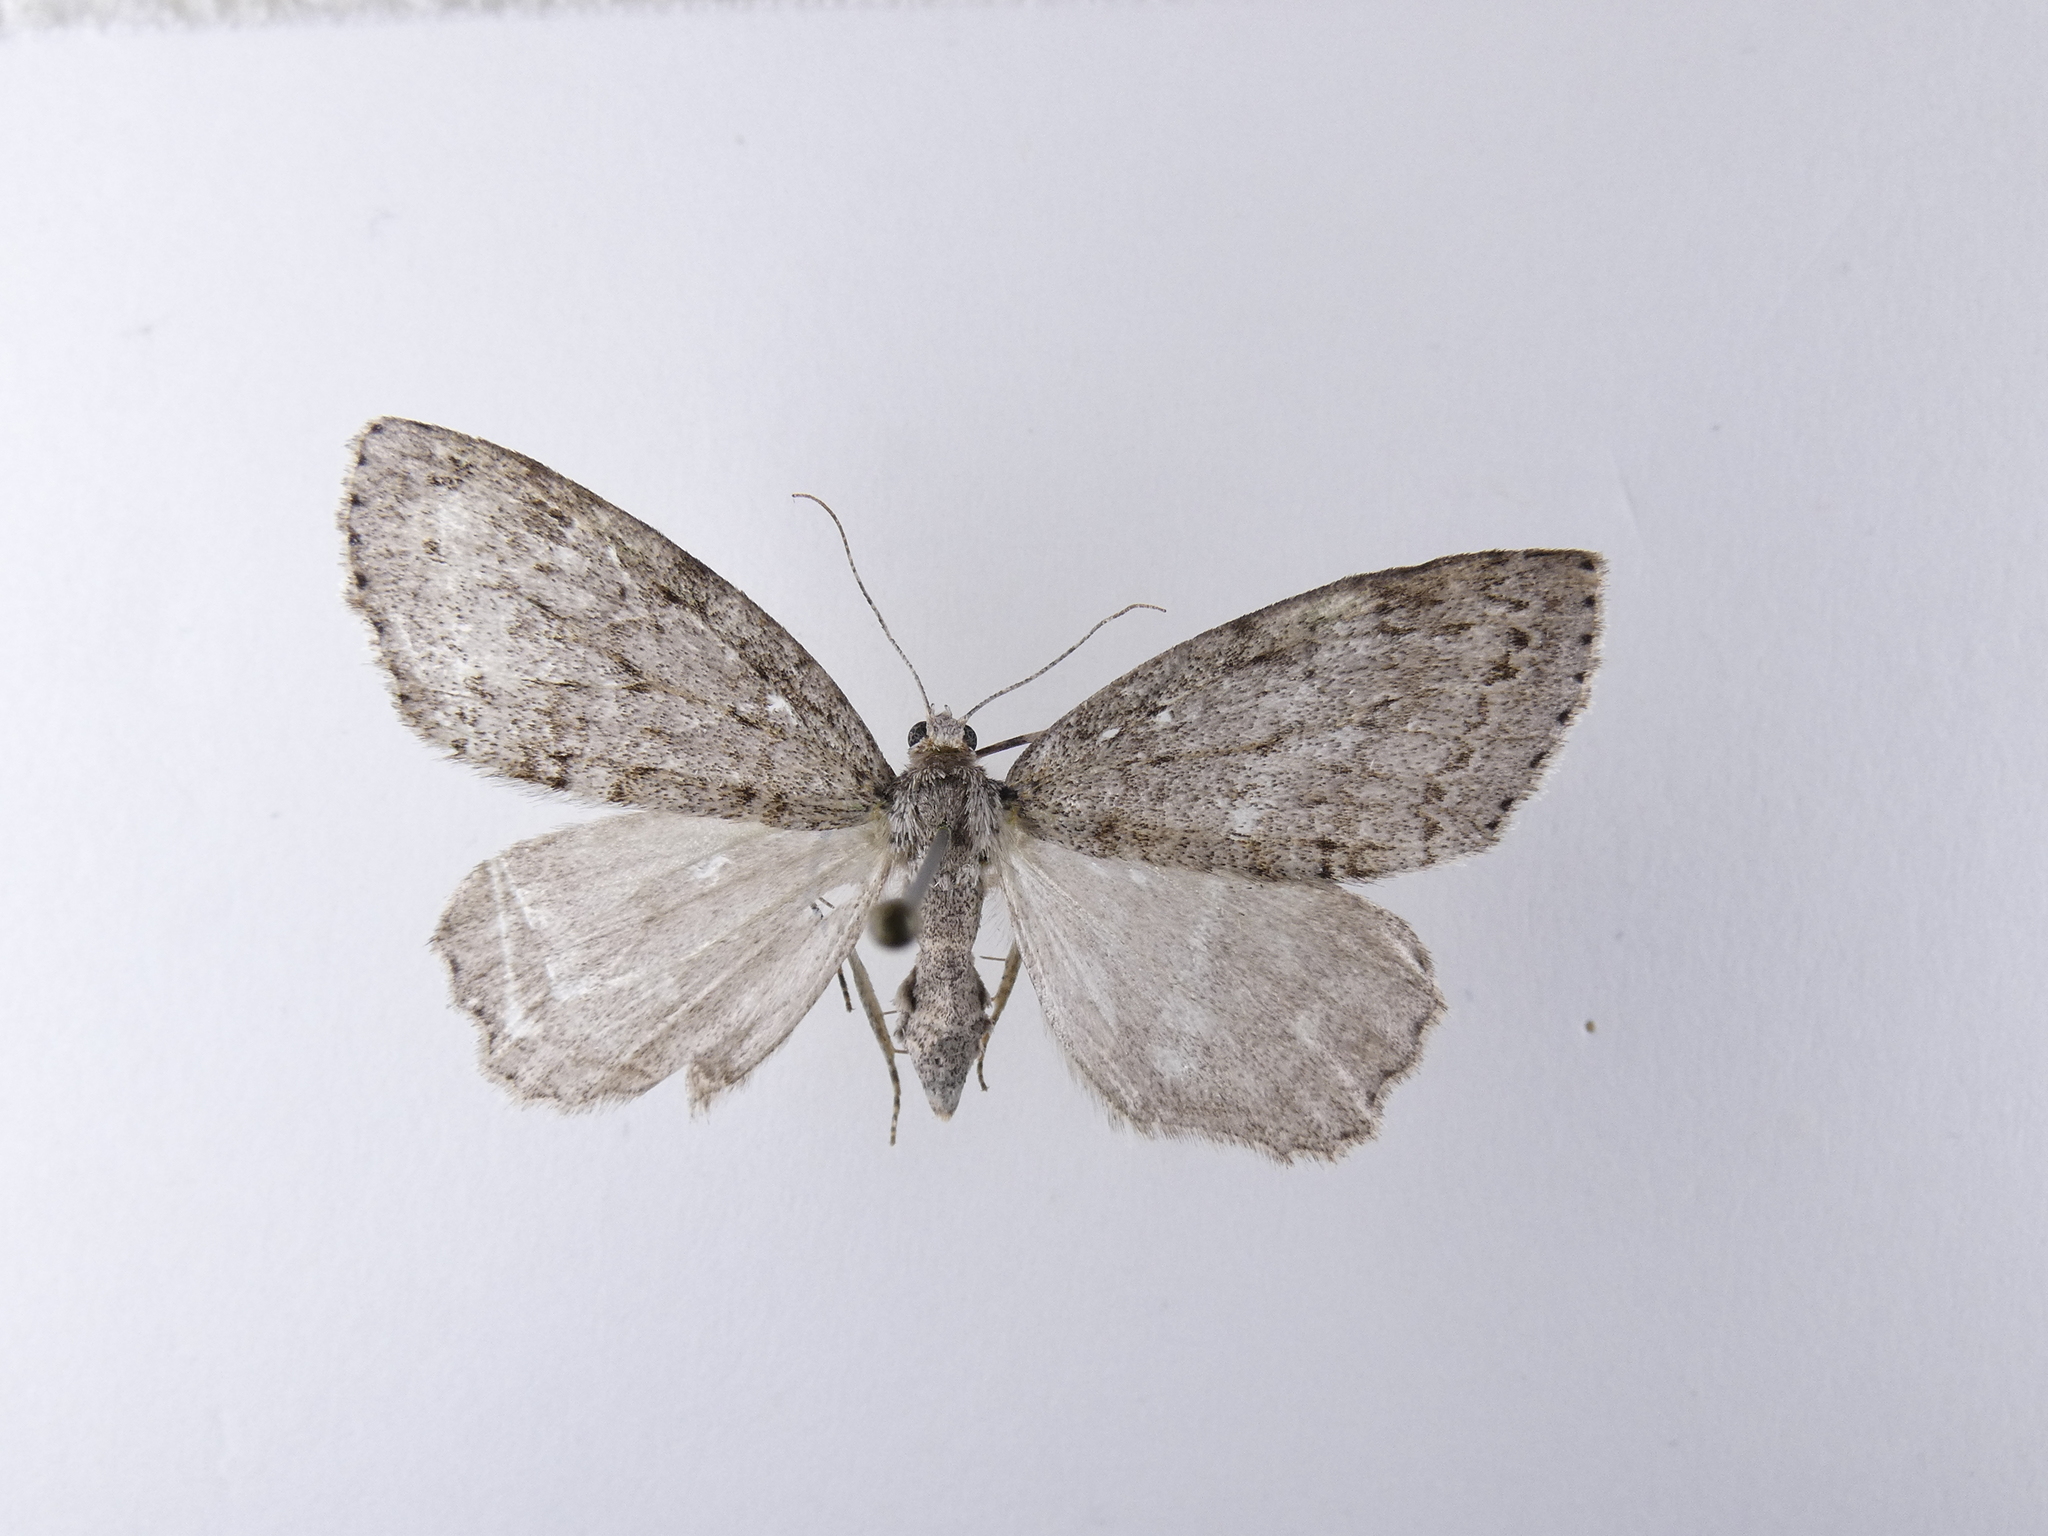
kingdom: Animalia
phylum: Arthropoda
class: Insecta
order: Lepidoptera
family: Geometridae
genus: Pseudocoremia
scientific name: Pseudocoremia fenerata
